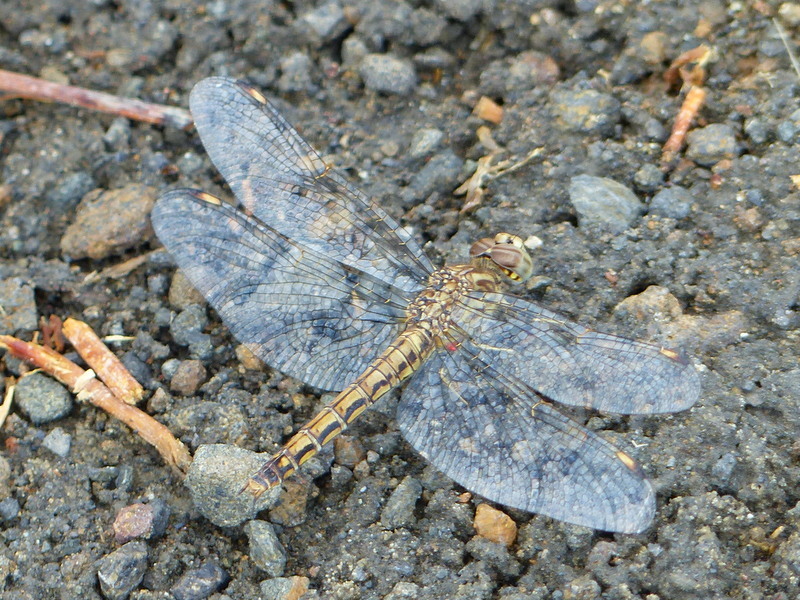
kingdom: Animalia
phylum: Arthropoda
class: Insecta
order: Odonata
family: Libellulidae
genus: Brachythemis
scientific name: Brachythemis leucosticta
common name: Banded groundling
